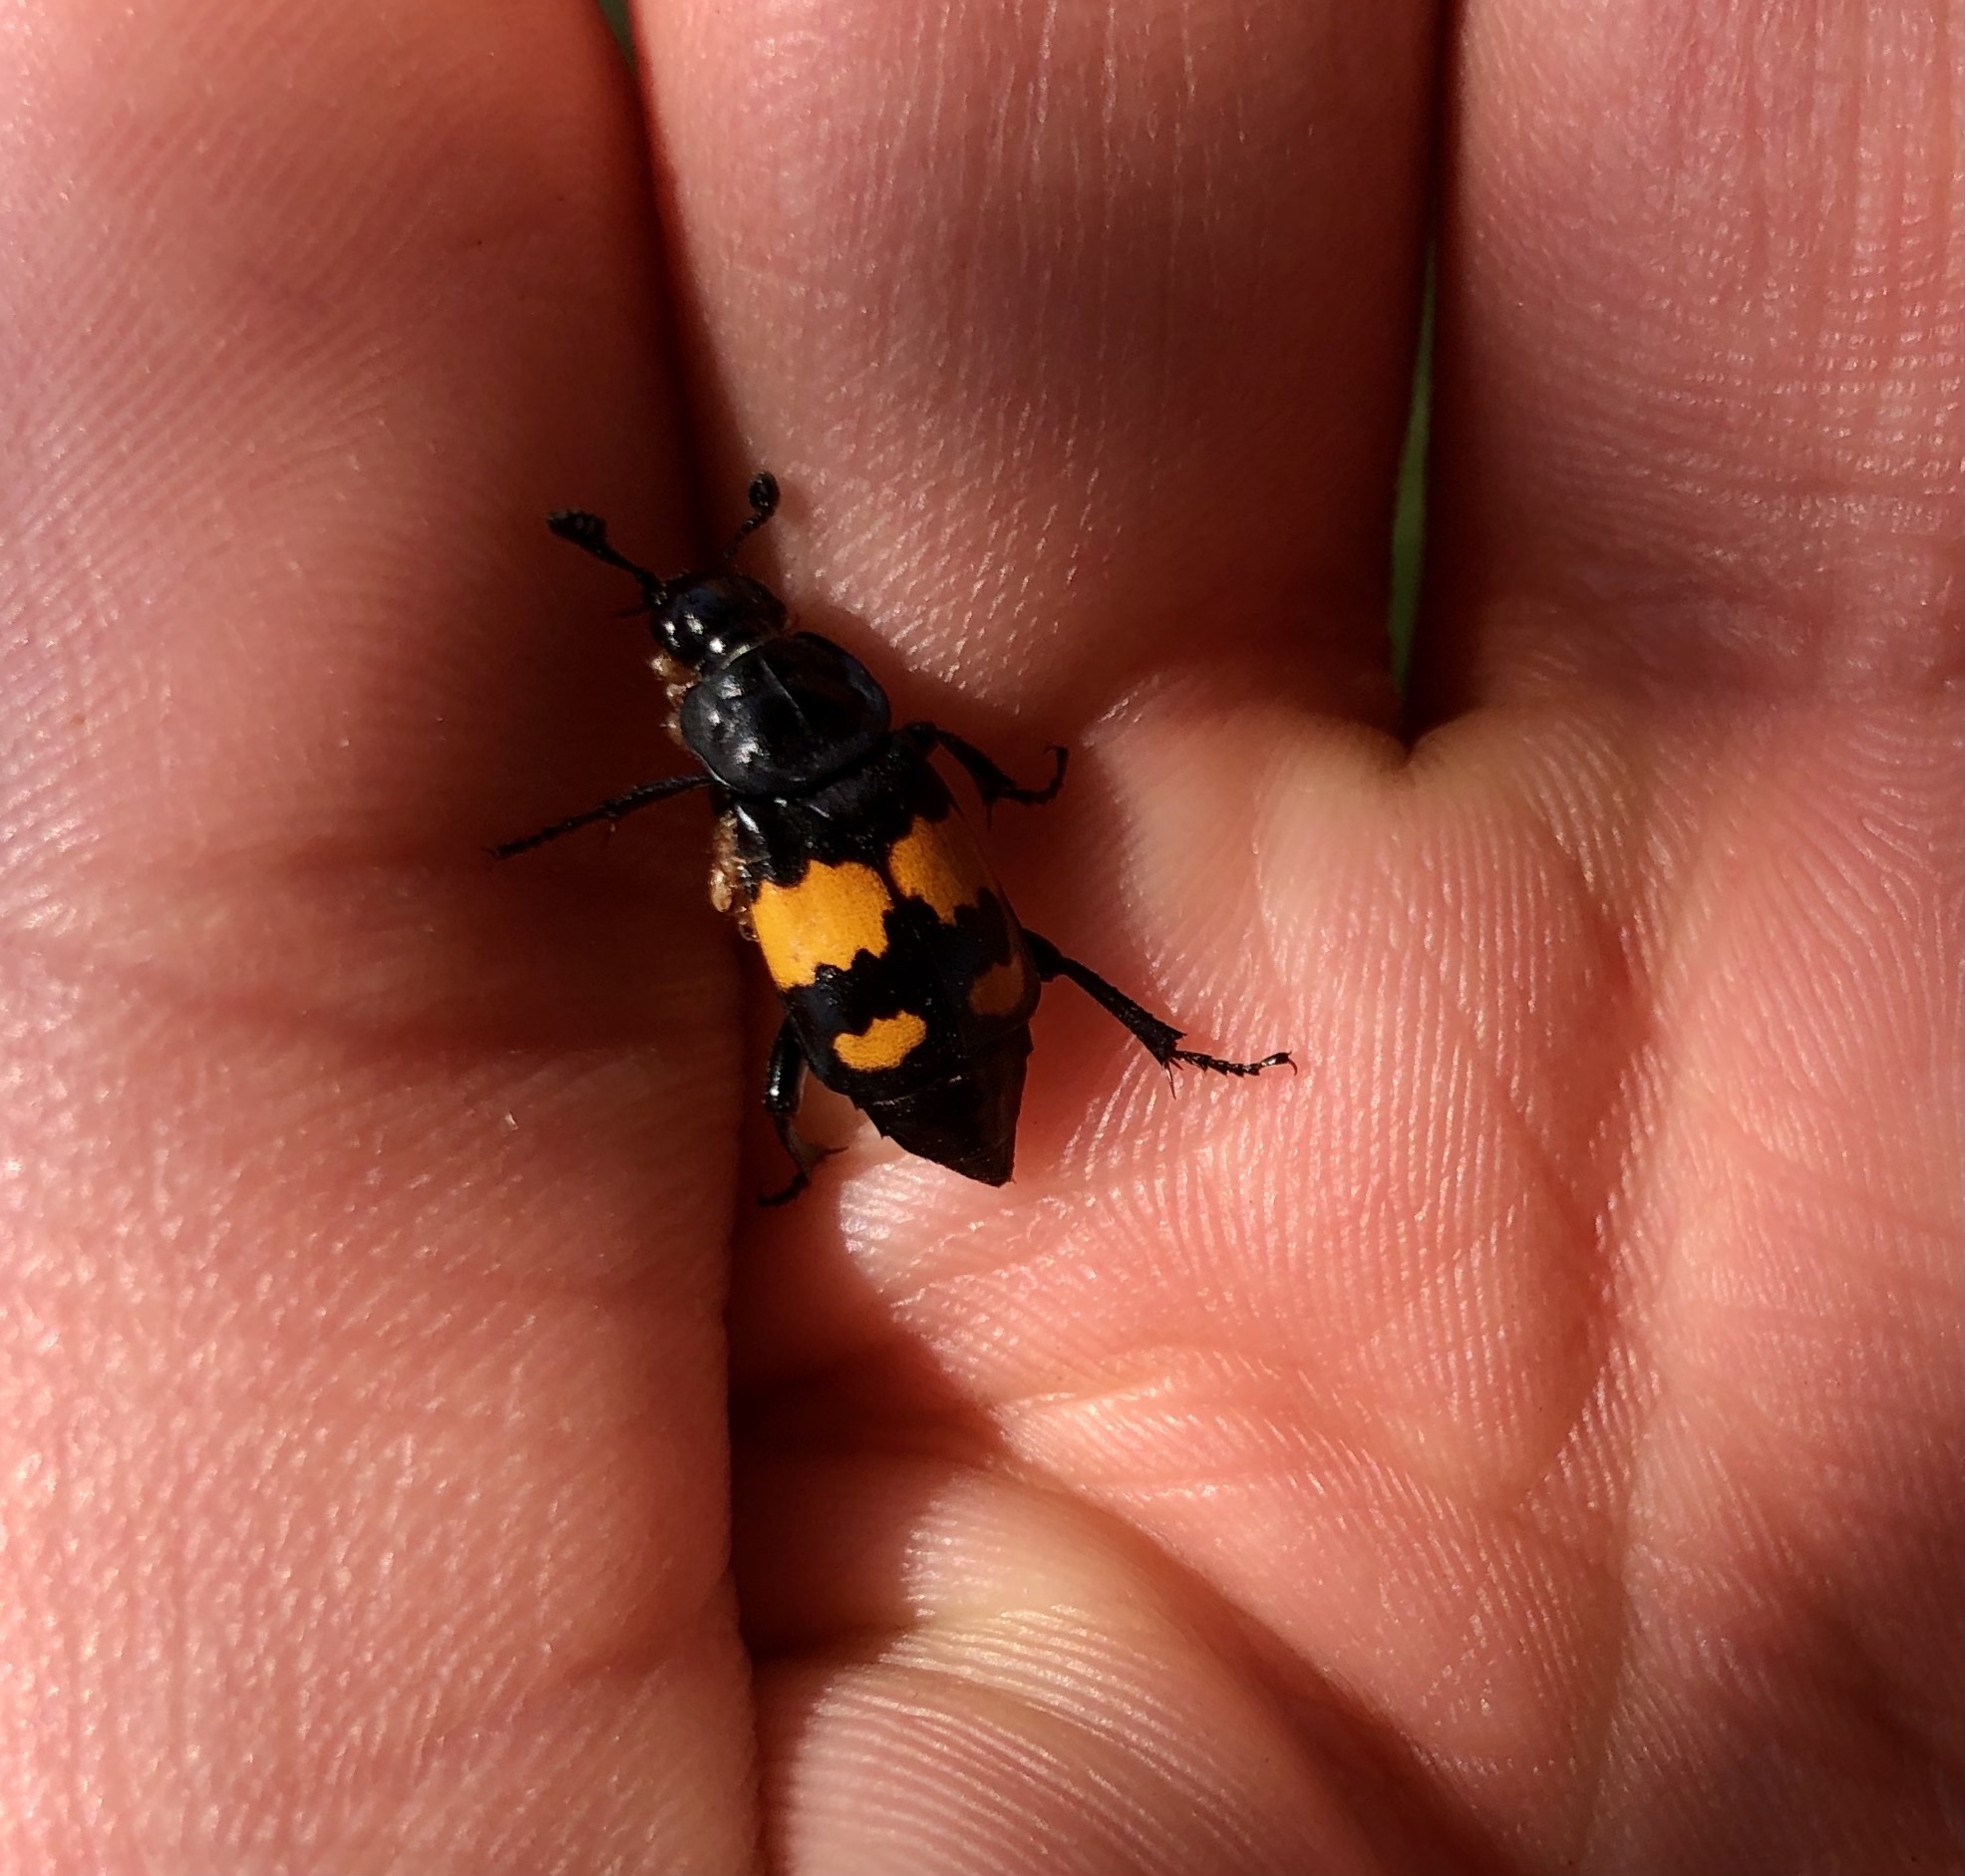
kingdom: Animalia
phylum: Arthropoda
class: Insecta
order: Coleoptera
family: Staphylinidae
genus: Nicrophorus
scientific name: Nicrophorus vespilloides
